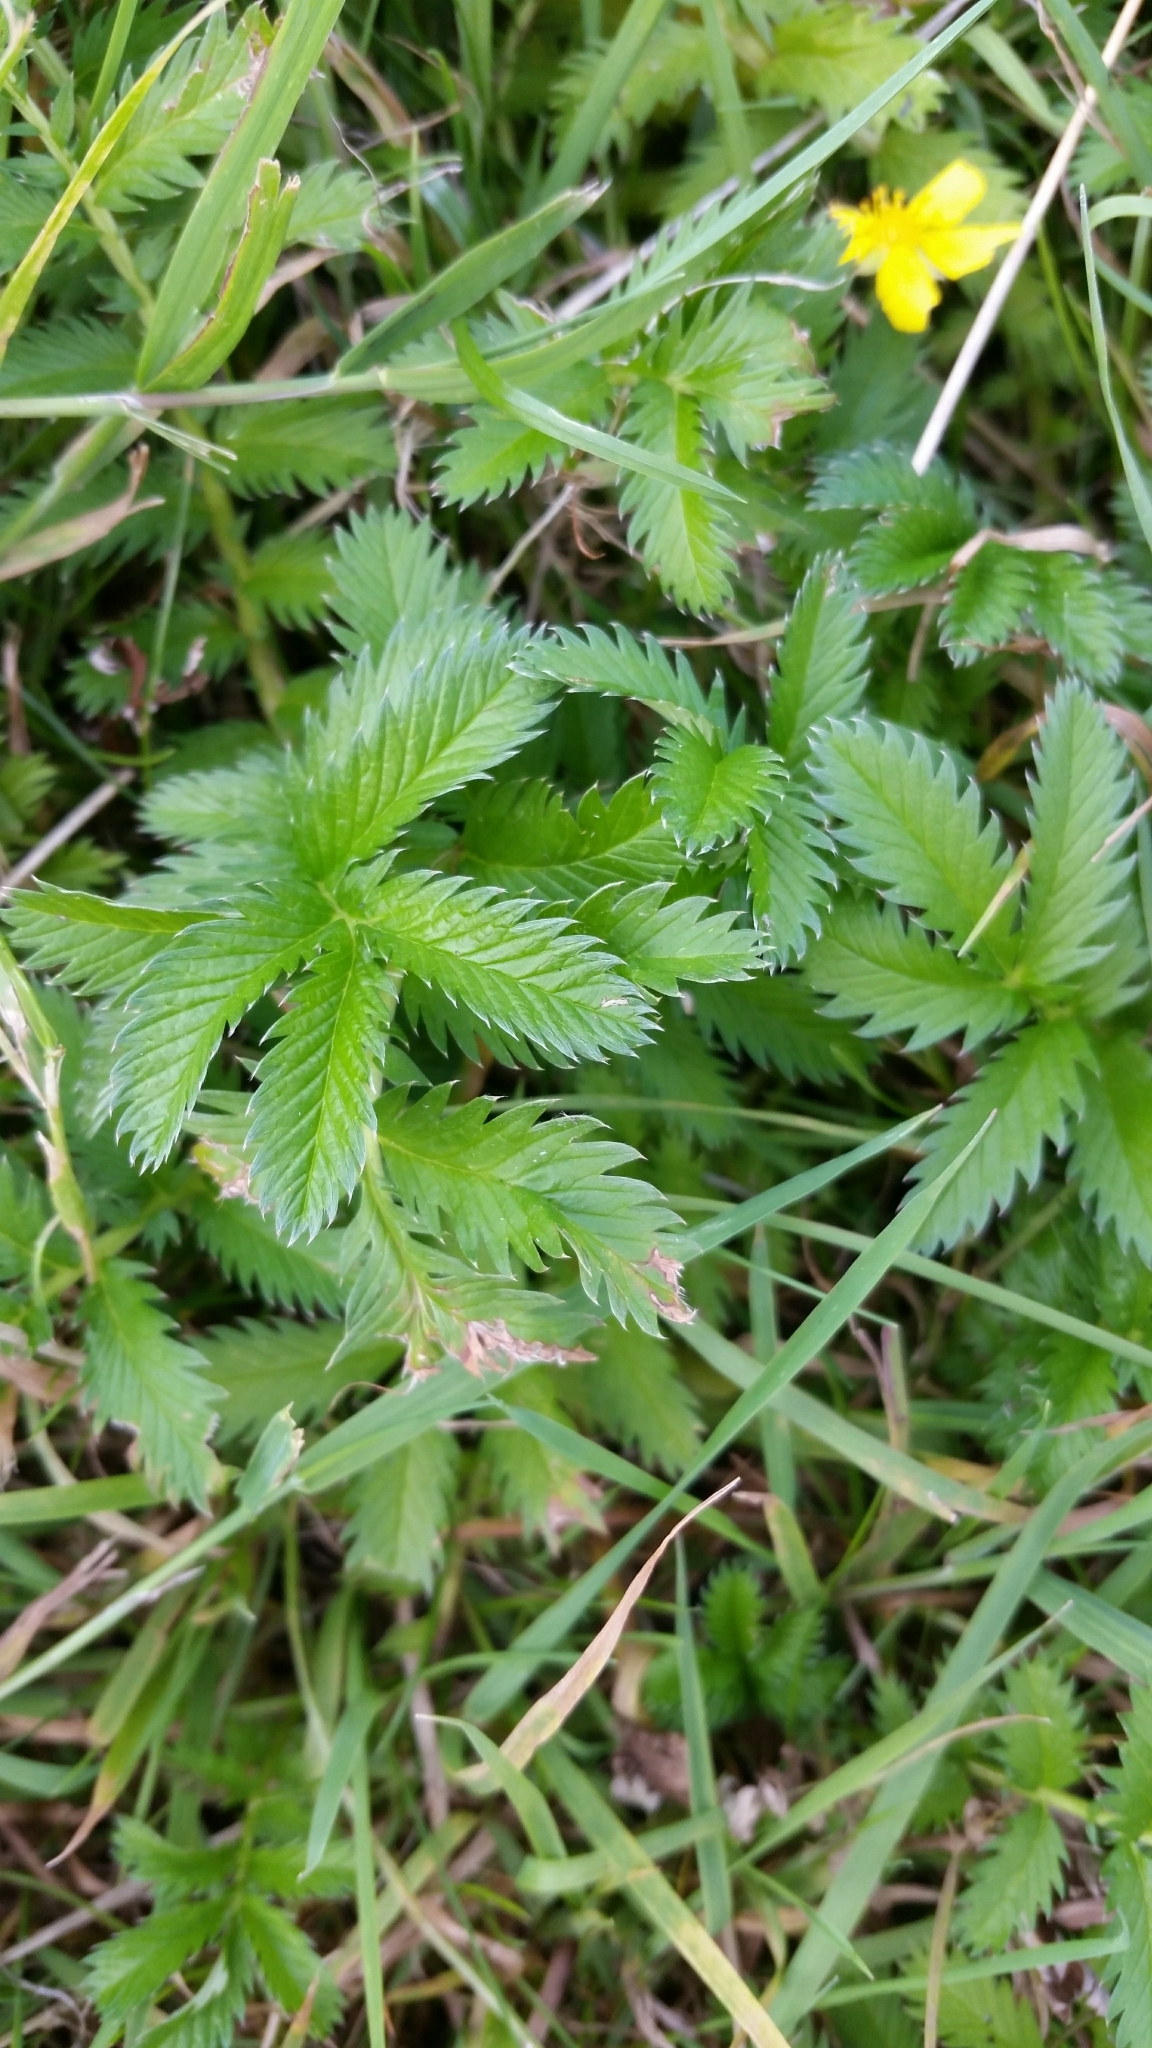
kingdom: Plantae
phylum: Tracheophyta
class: Magnoliopsida
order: Rosales
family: Rosaceae
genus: Argentina
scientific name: Argentina anserina
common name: Common silverweed
